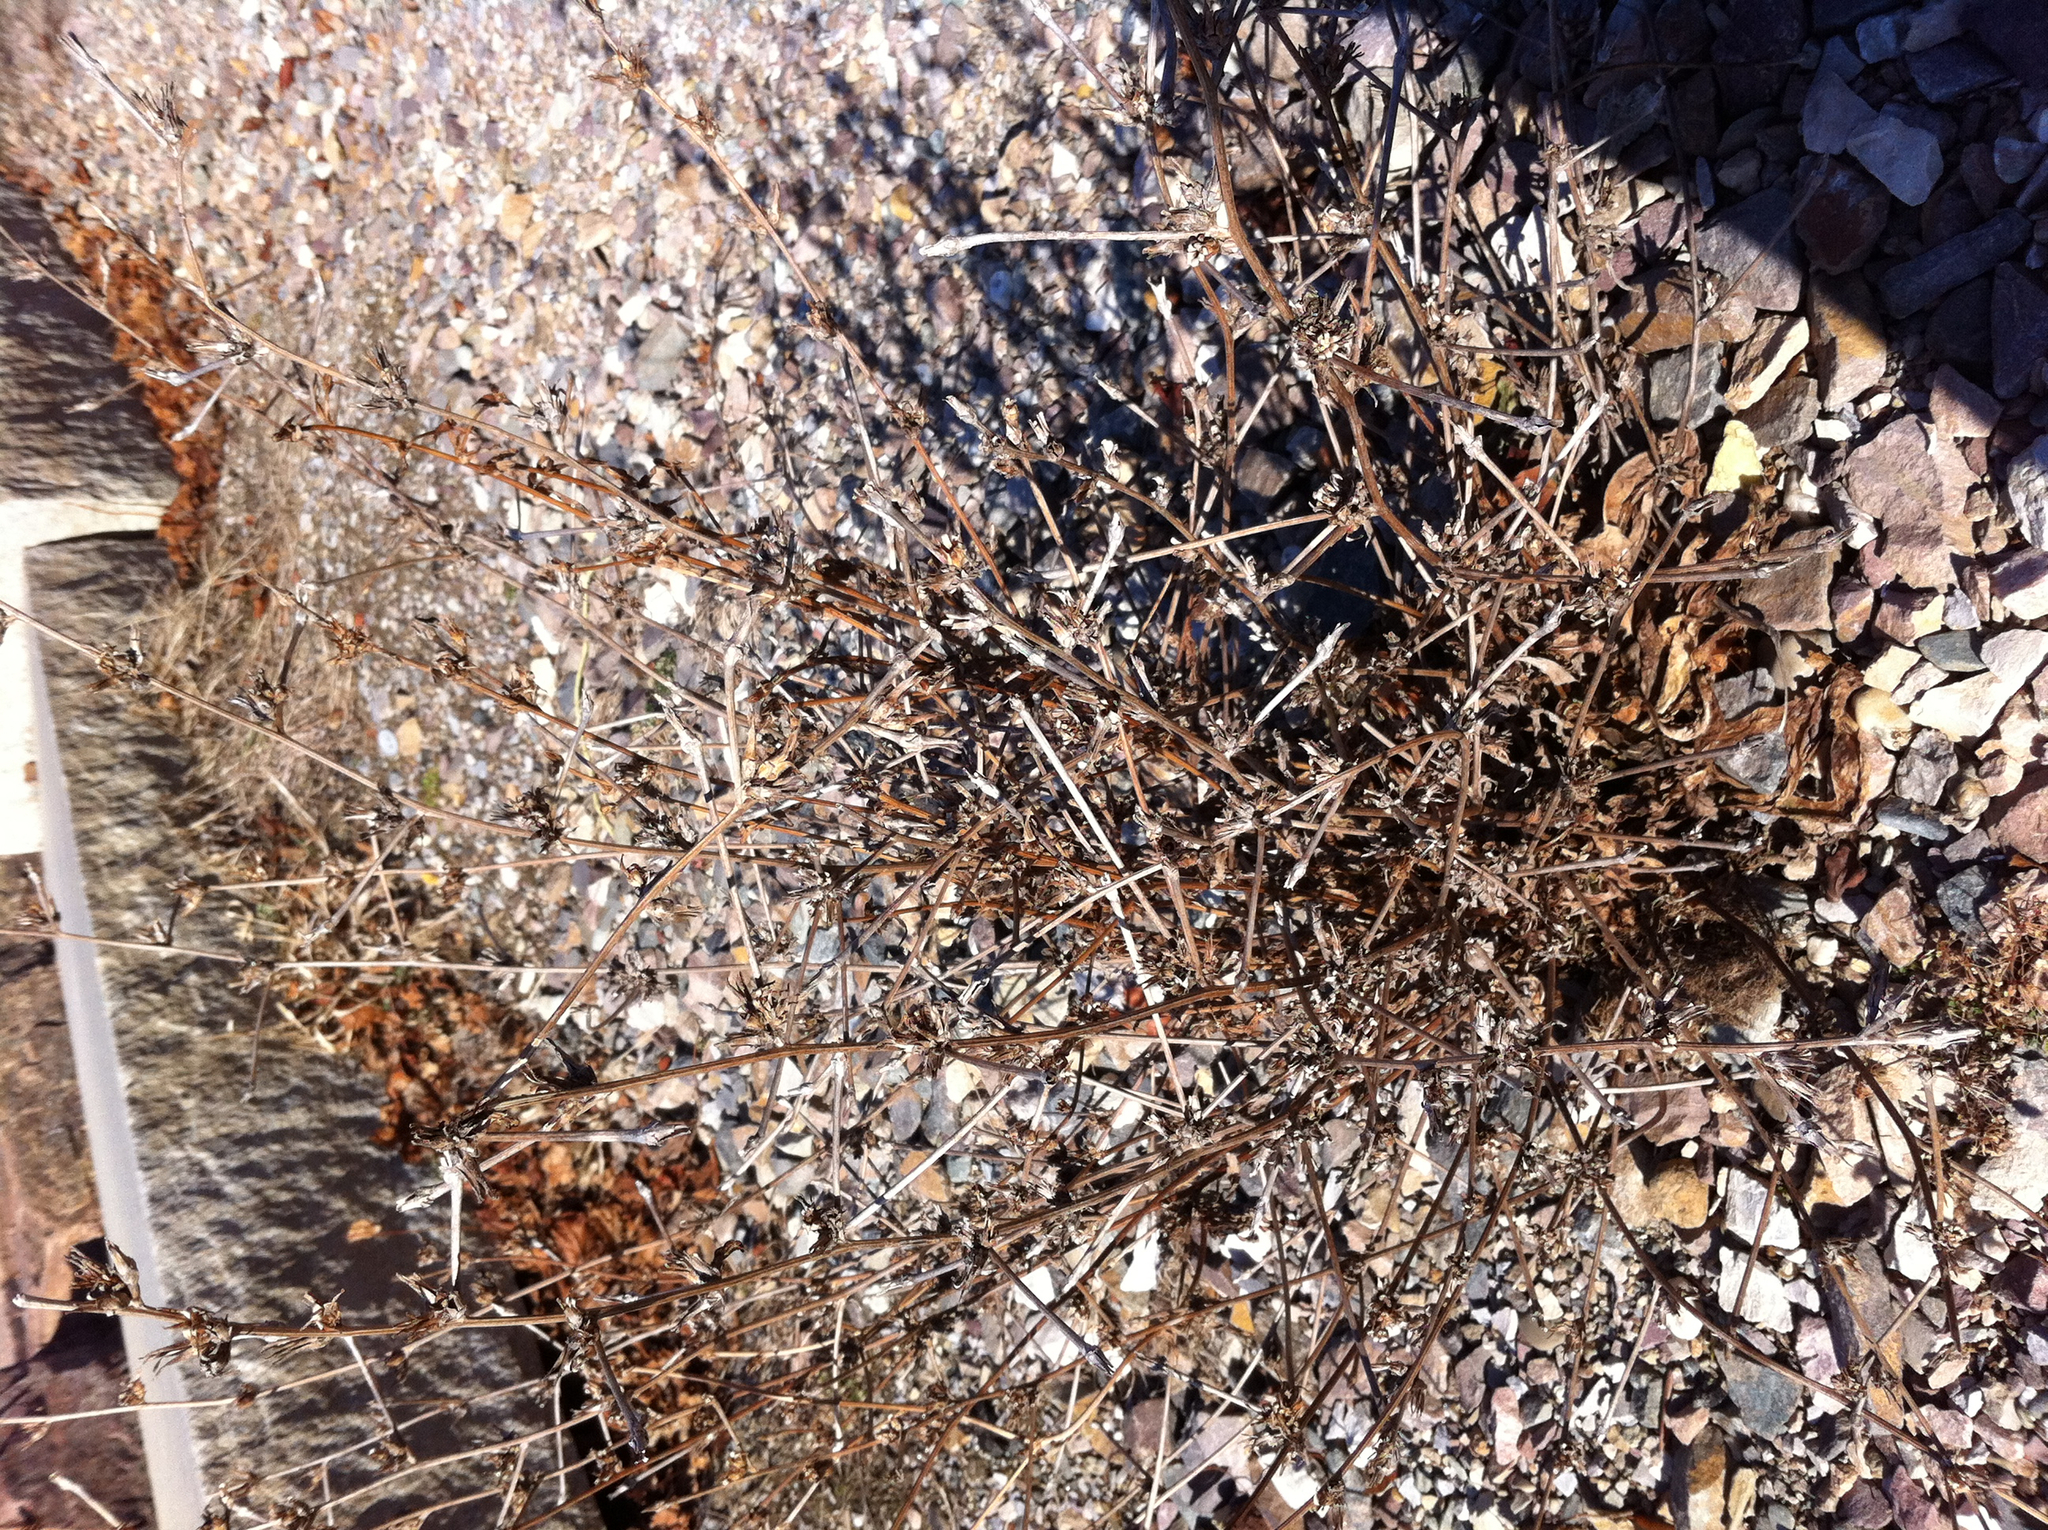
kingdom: Plantae
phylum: Tracheophyta
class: Magnoliopsida
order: Asterales
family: Asteraceae
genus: Cichorium
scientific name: Cichorium intybus
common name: Chicory
